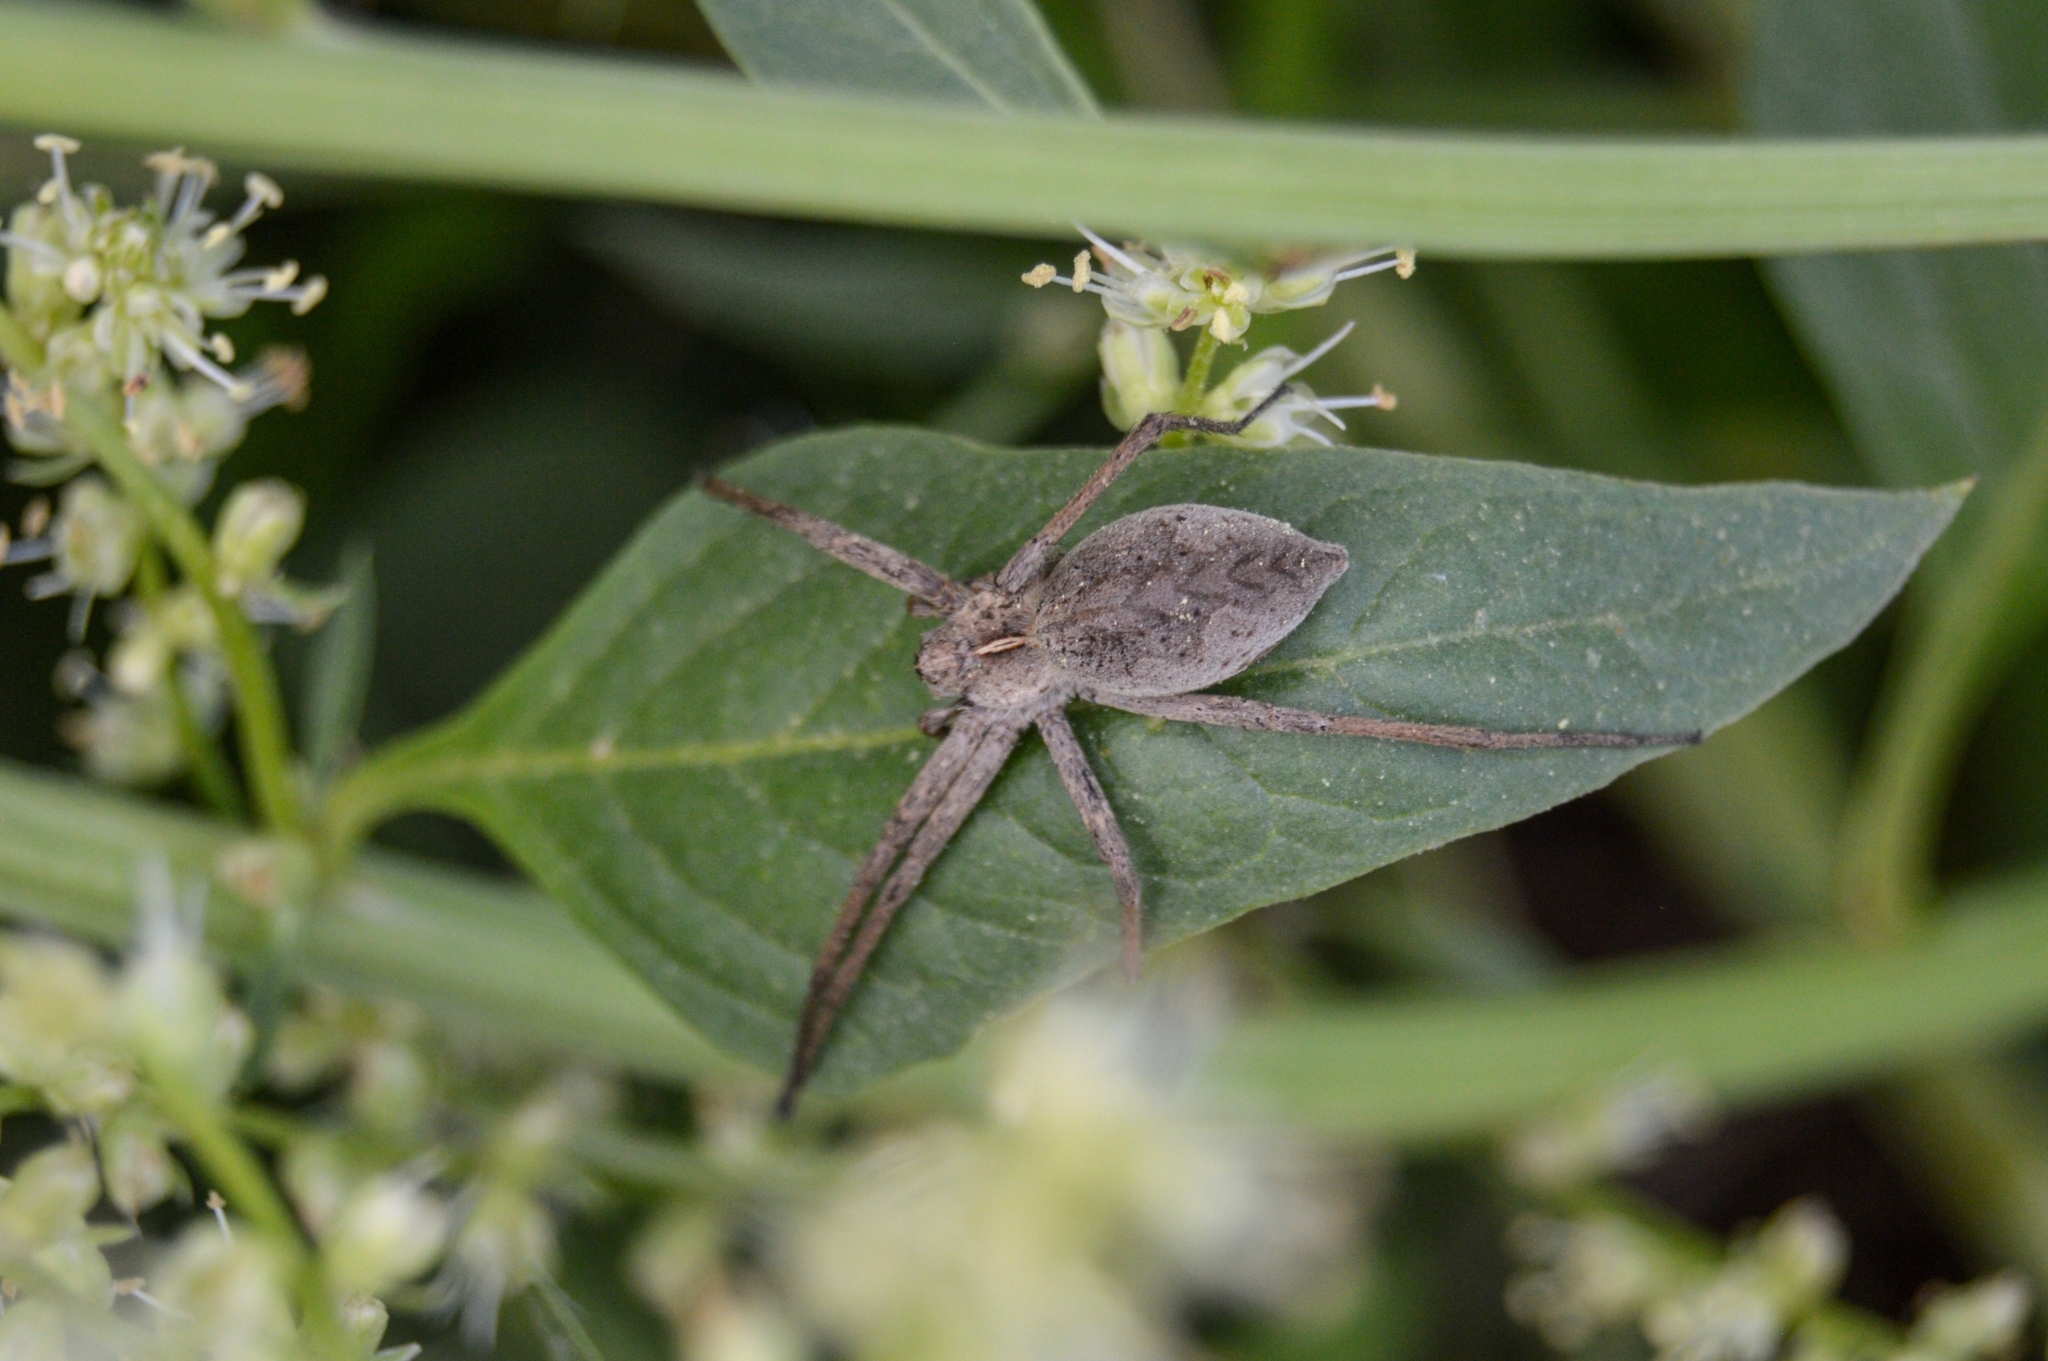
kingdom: Animalia
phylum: Arthropoda
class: Arachnida
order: Araneae
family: Pisauridae
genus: Pisaura
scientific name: Pisaura
